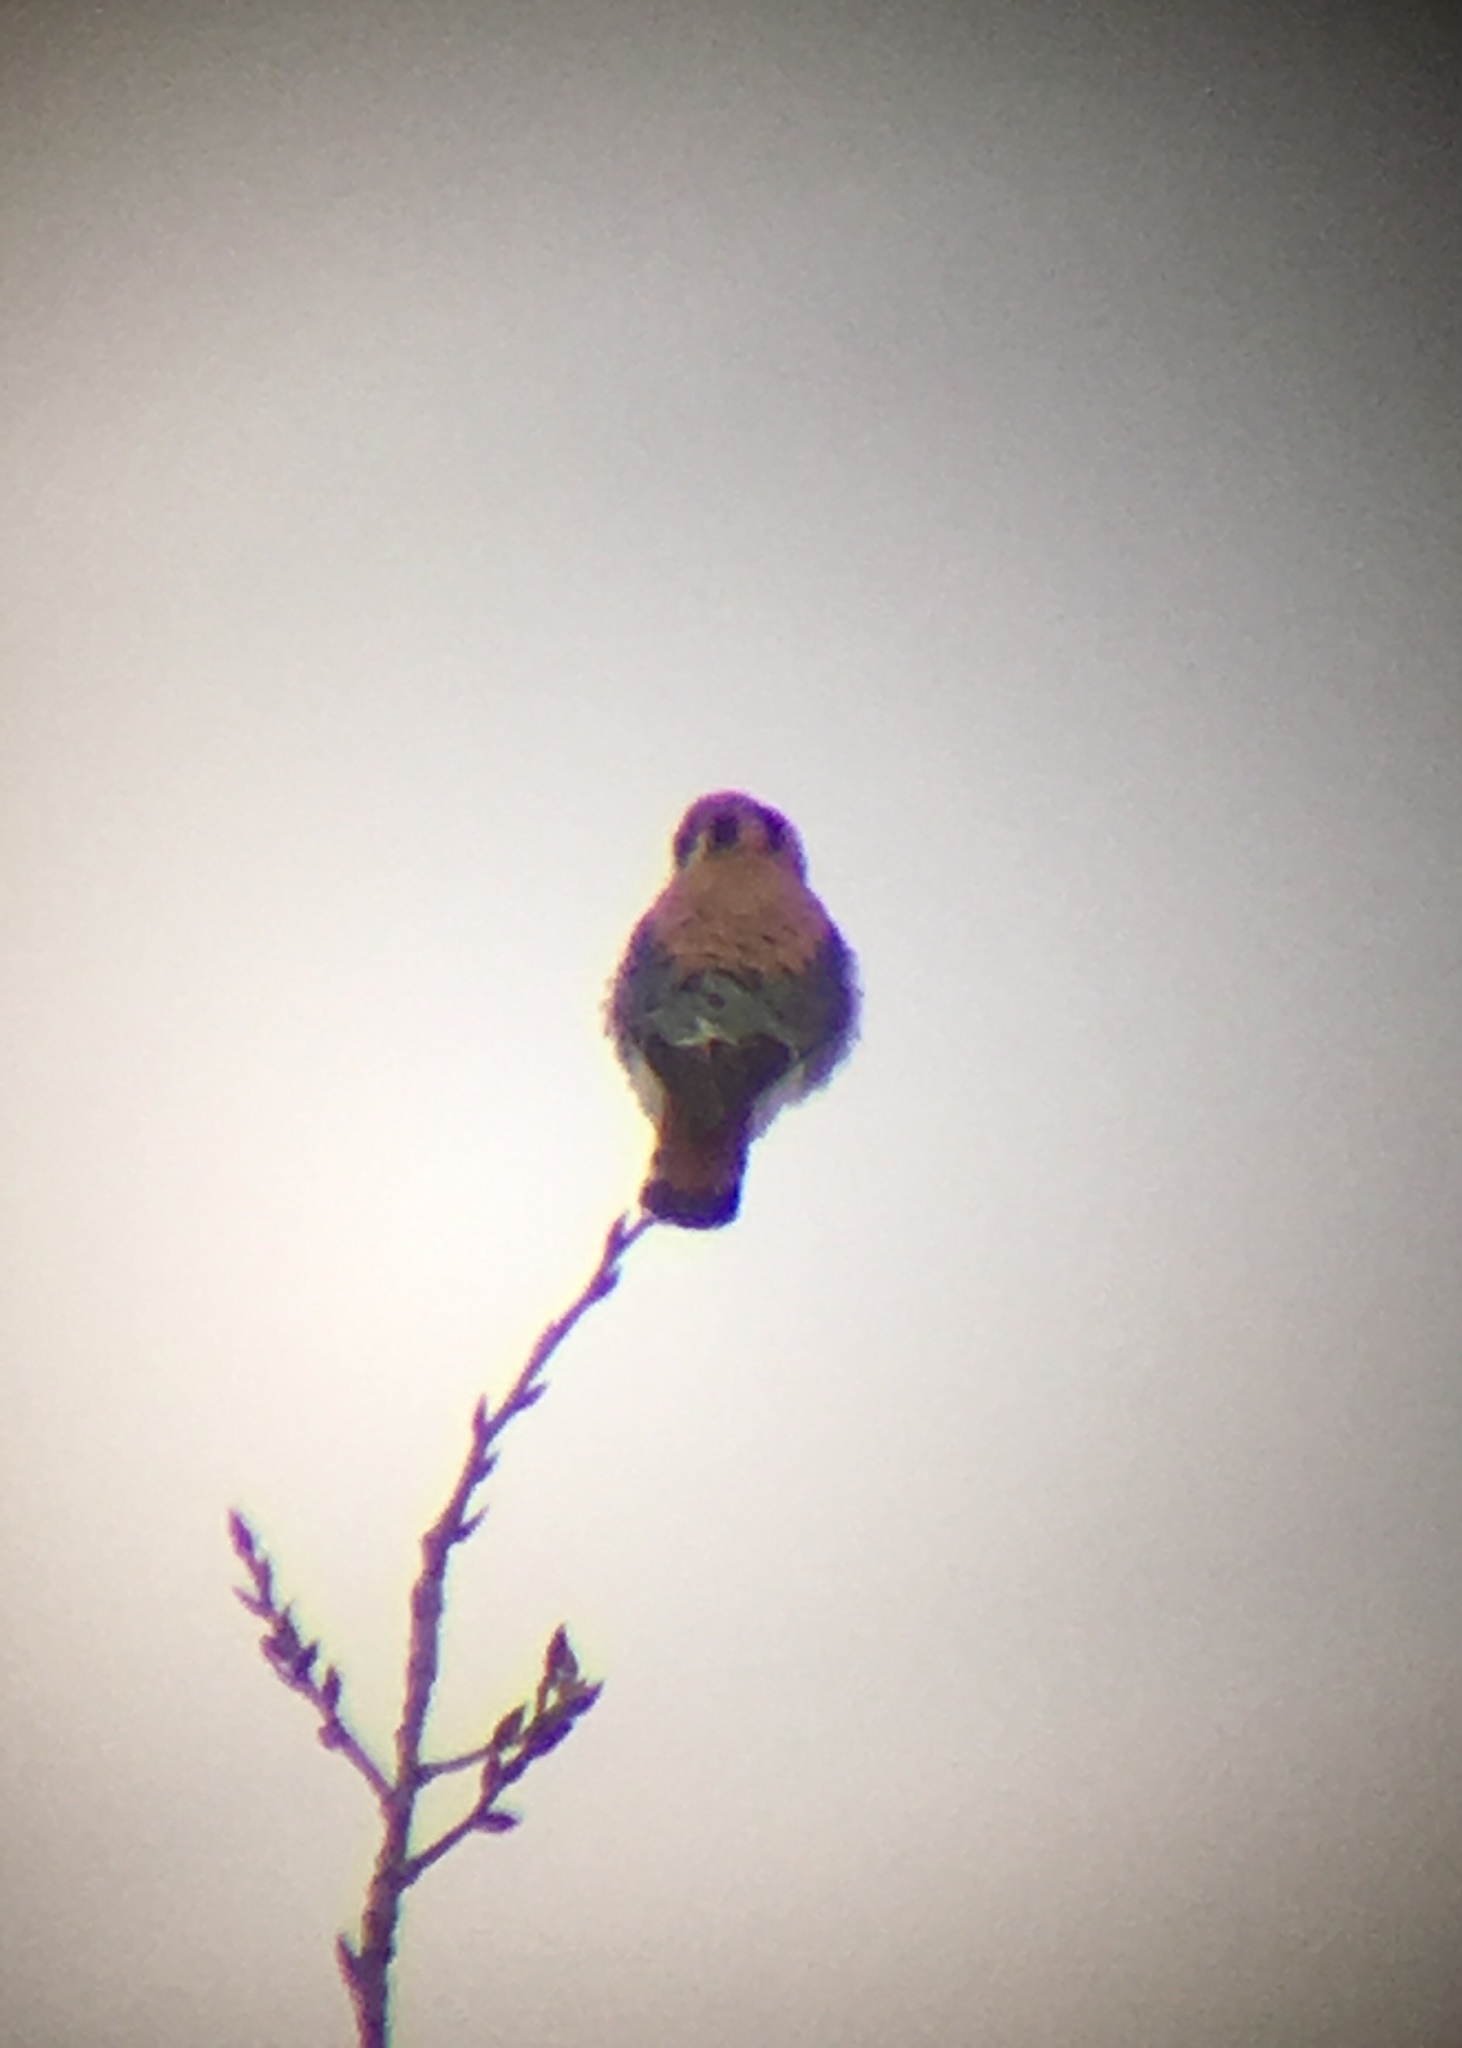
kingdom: Animalia
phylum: Chordata
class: Aves
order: Falconiformes
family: Falconidae
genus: Falco
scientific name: Falco sparverius
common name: American kestrel
